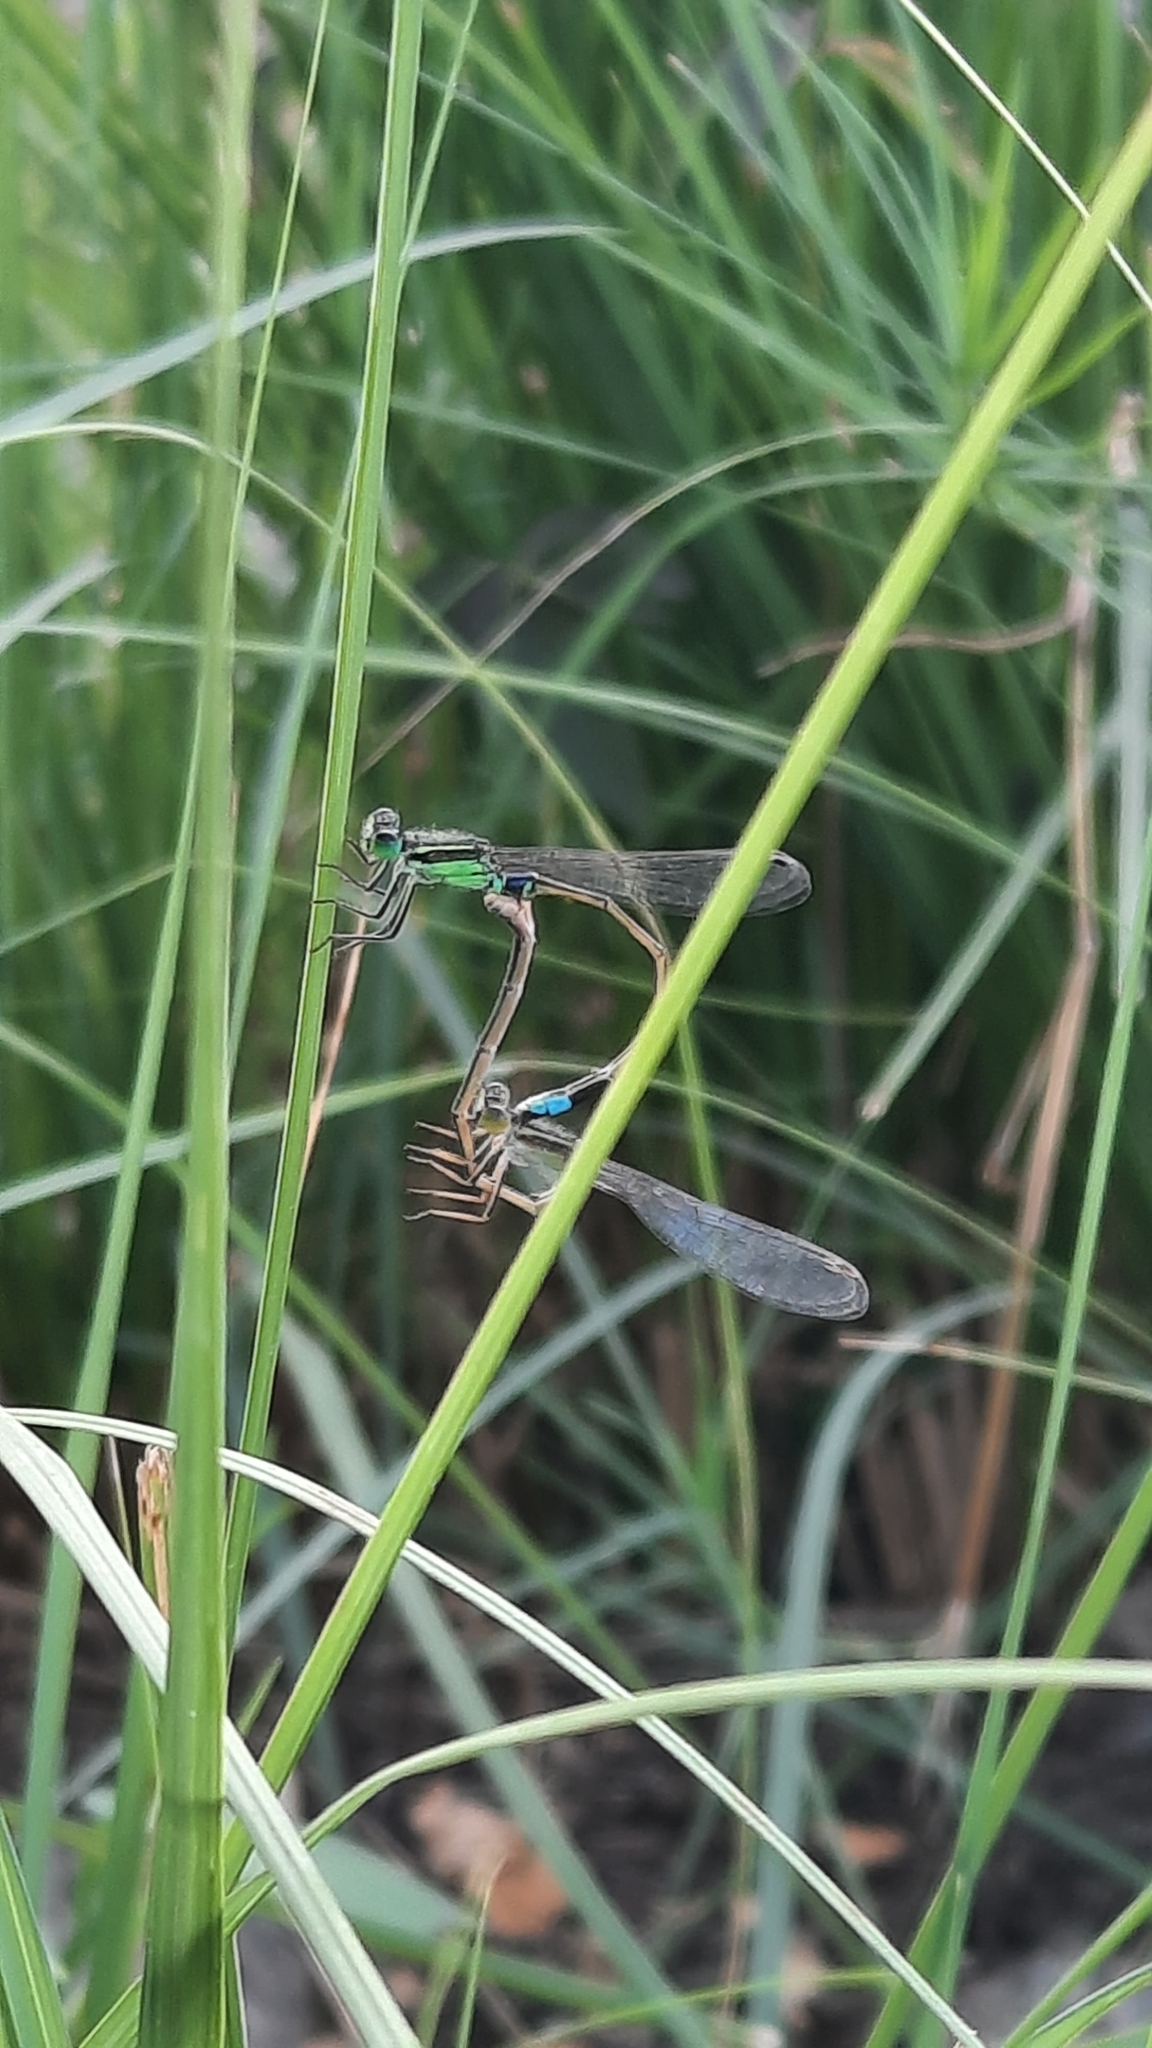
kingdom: Animalia
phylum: Arthropoda
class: Insecta
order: Odonata
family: Coenagrionidae
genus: Ischnura
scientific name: Ischnura senegalensis
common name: Tropical bluetail
